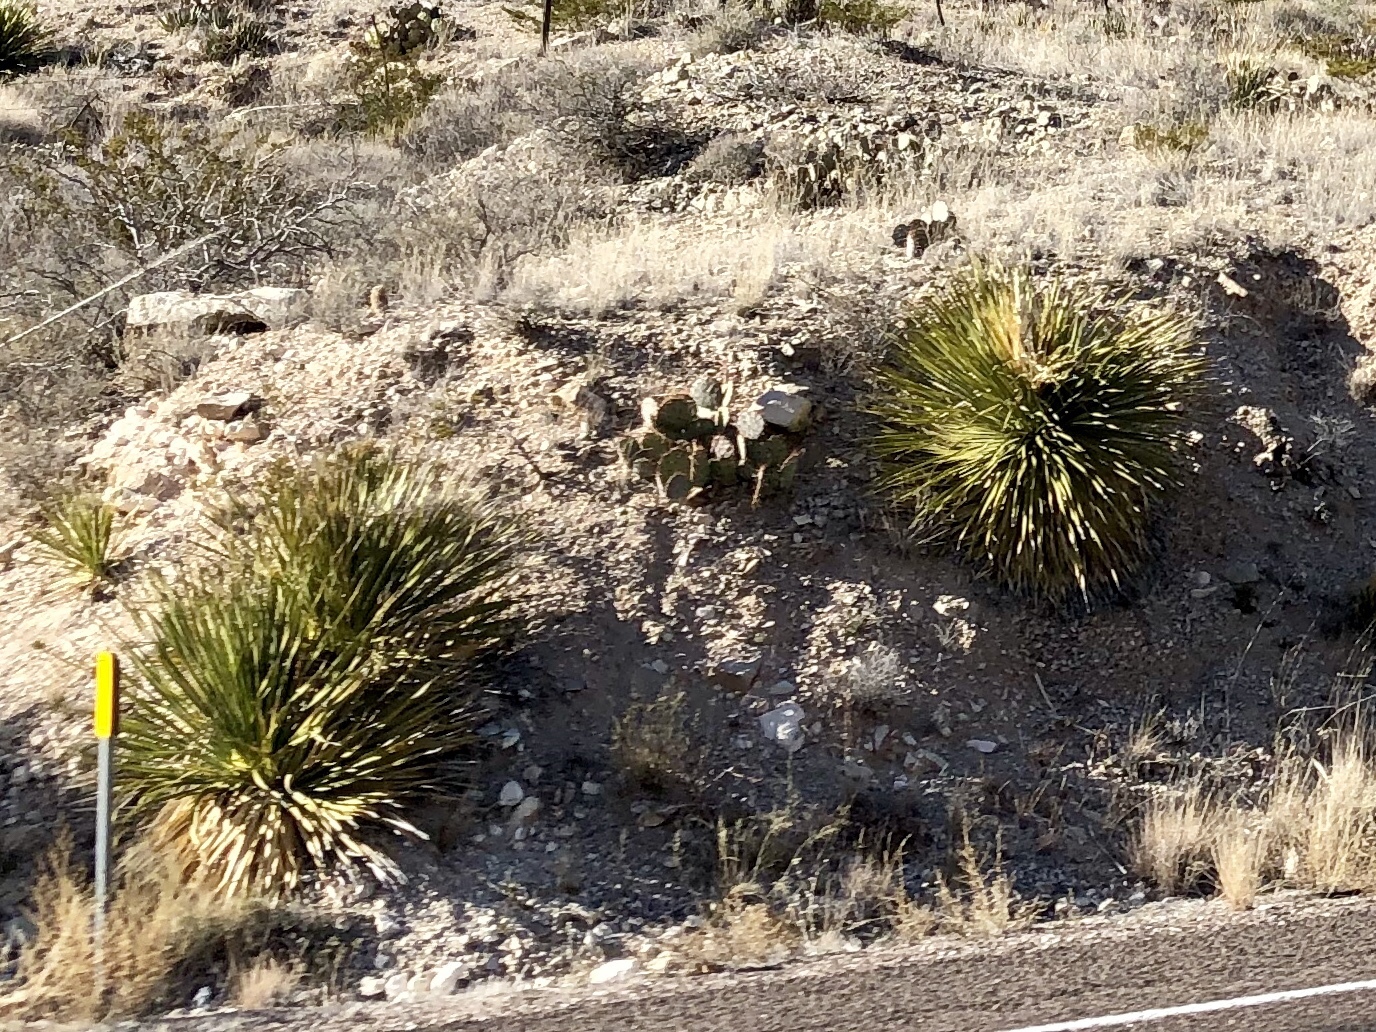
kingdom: Plantae
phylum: Tracheophyta
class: Liliopsida
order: Asparagales
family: Asparagaceae
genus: Dasylirion
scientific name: Dasylirion wheeleri
